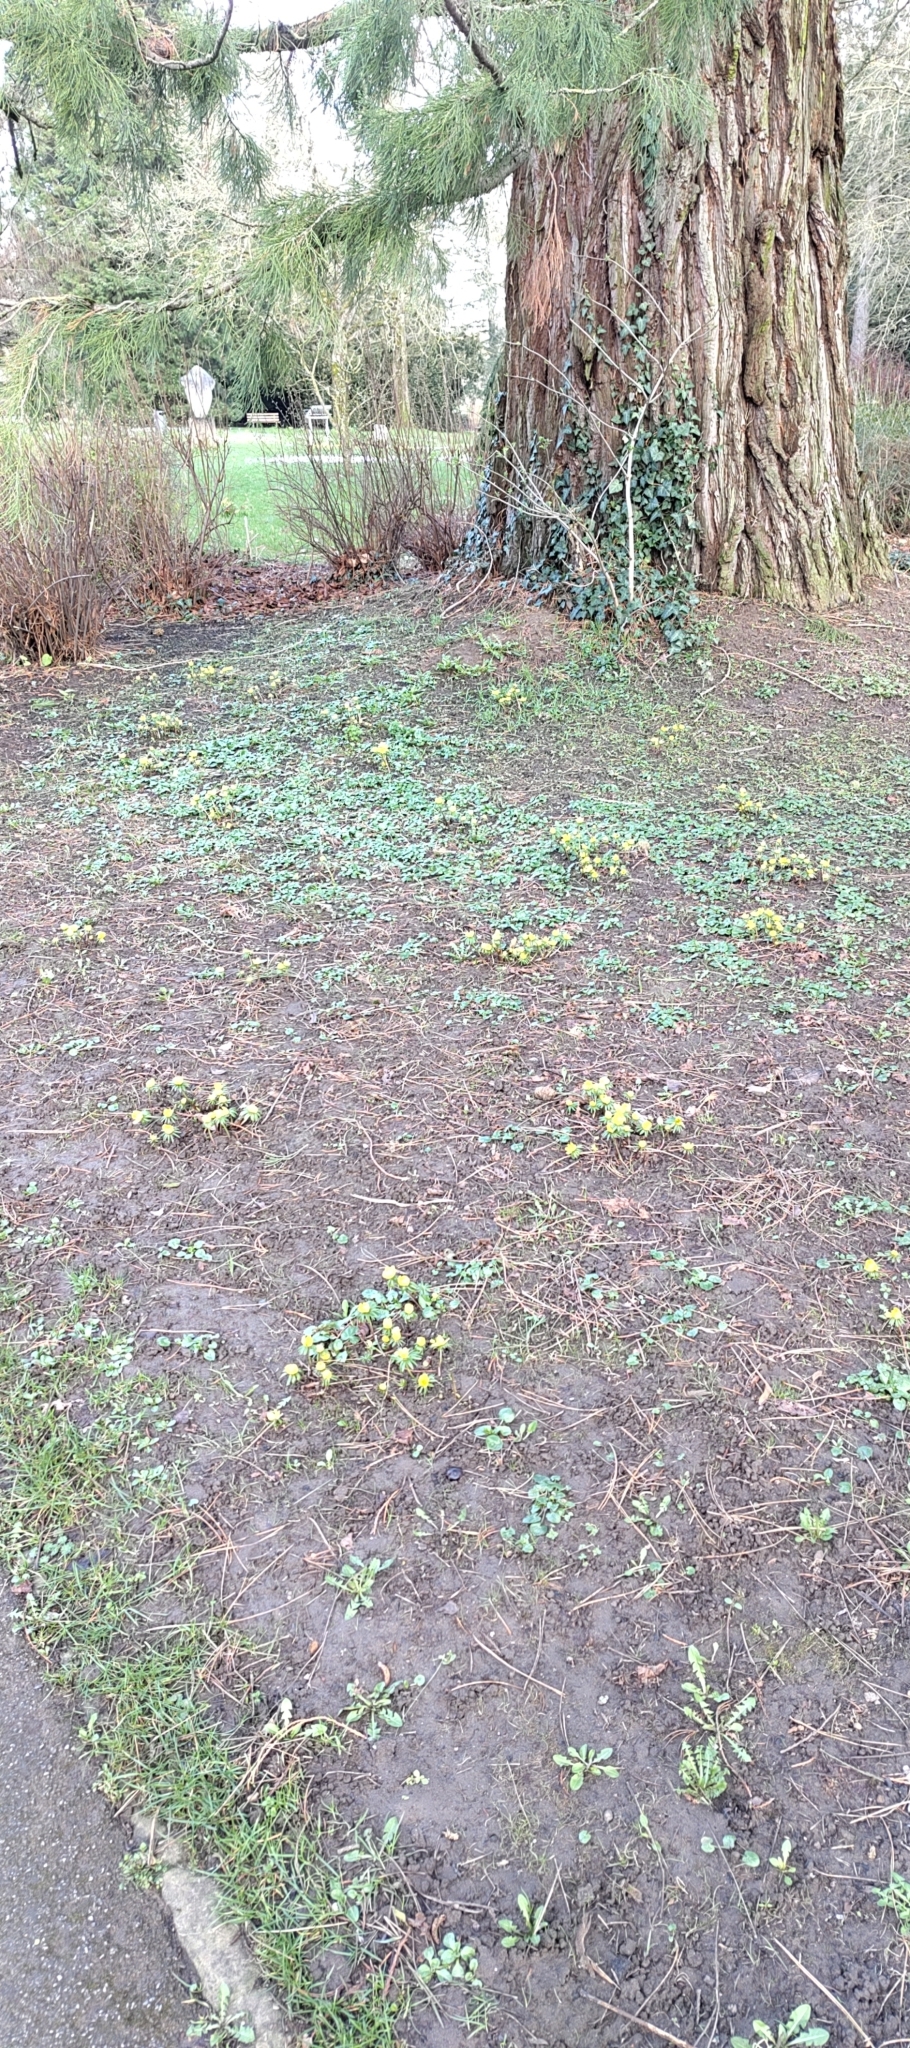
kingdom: Plantae
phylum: Tracheophyta
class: Magnoliopsida
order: Ranunculales
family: Ranunculaceae
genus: Eranthis
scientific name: Eranthis hyemalis
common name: Winter aconite
